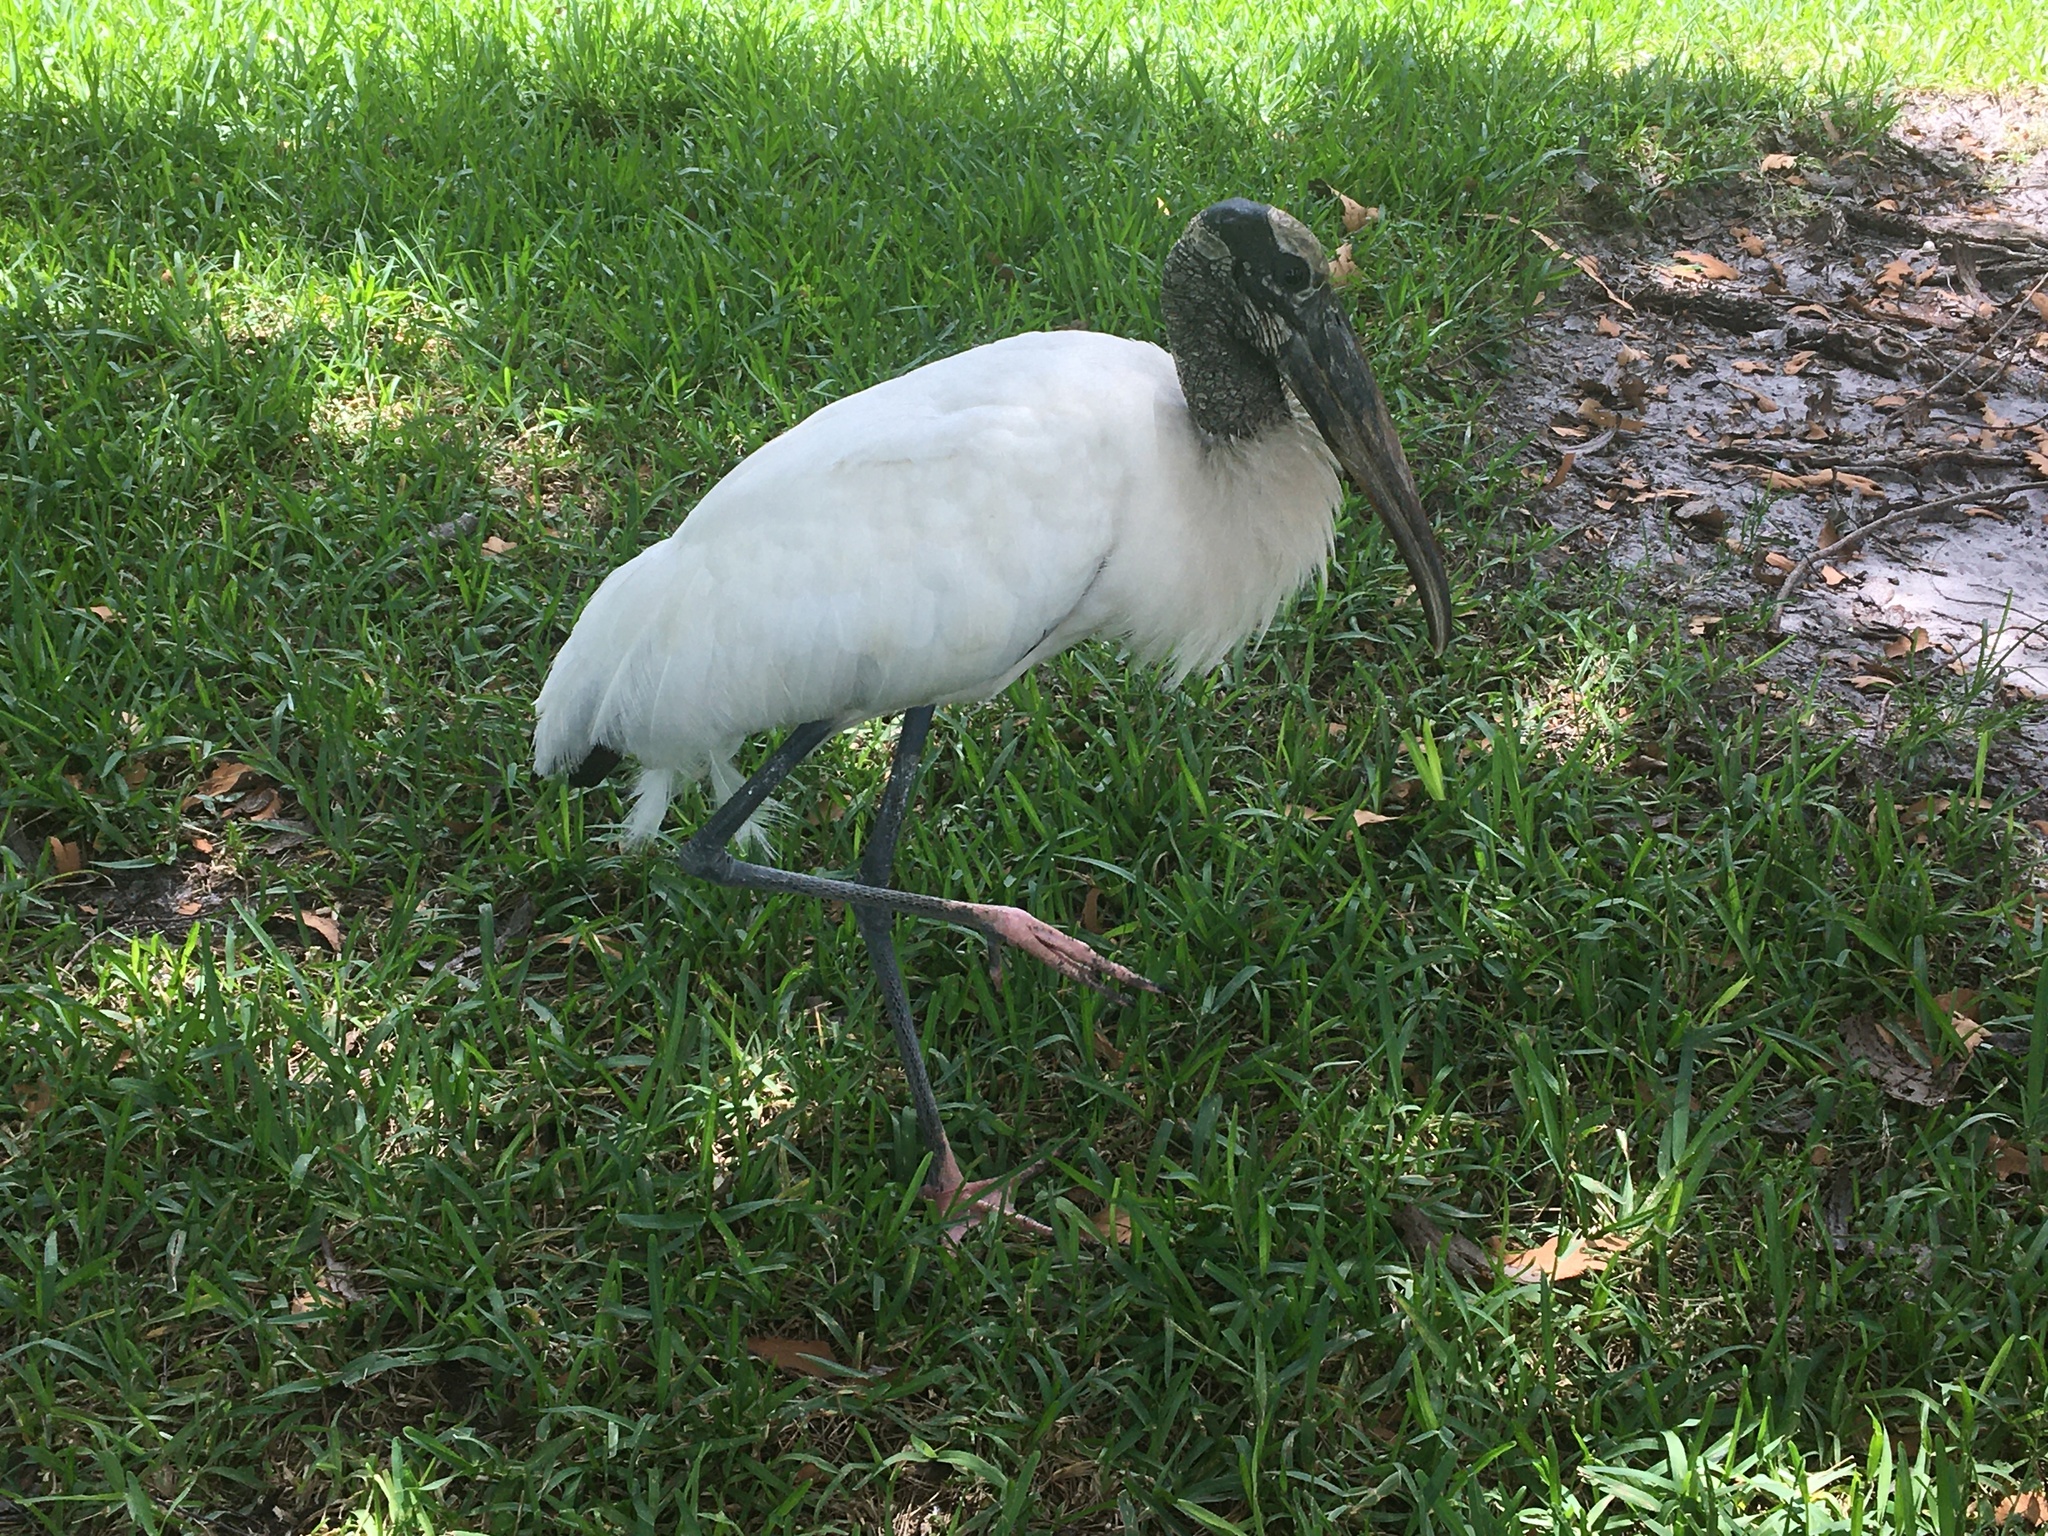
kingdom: Animalia
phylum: Chordata
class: Aves
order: Ciconiiformes
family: Ciconiidae
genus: Mycteria
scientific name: Mycteria americana
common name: Wood stork
